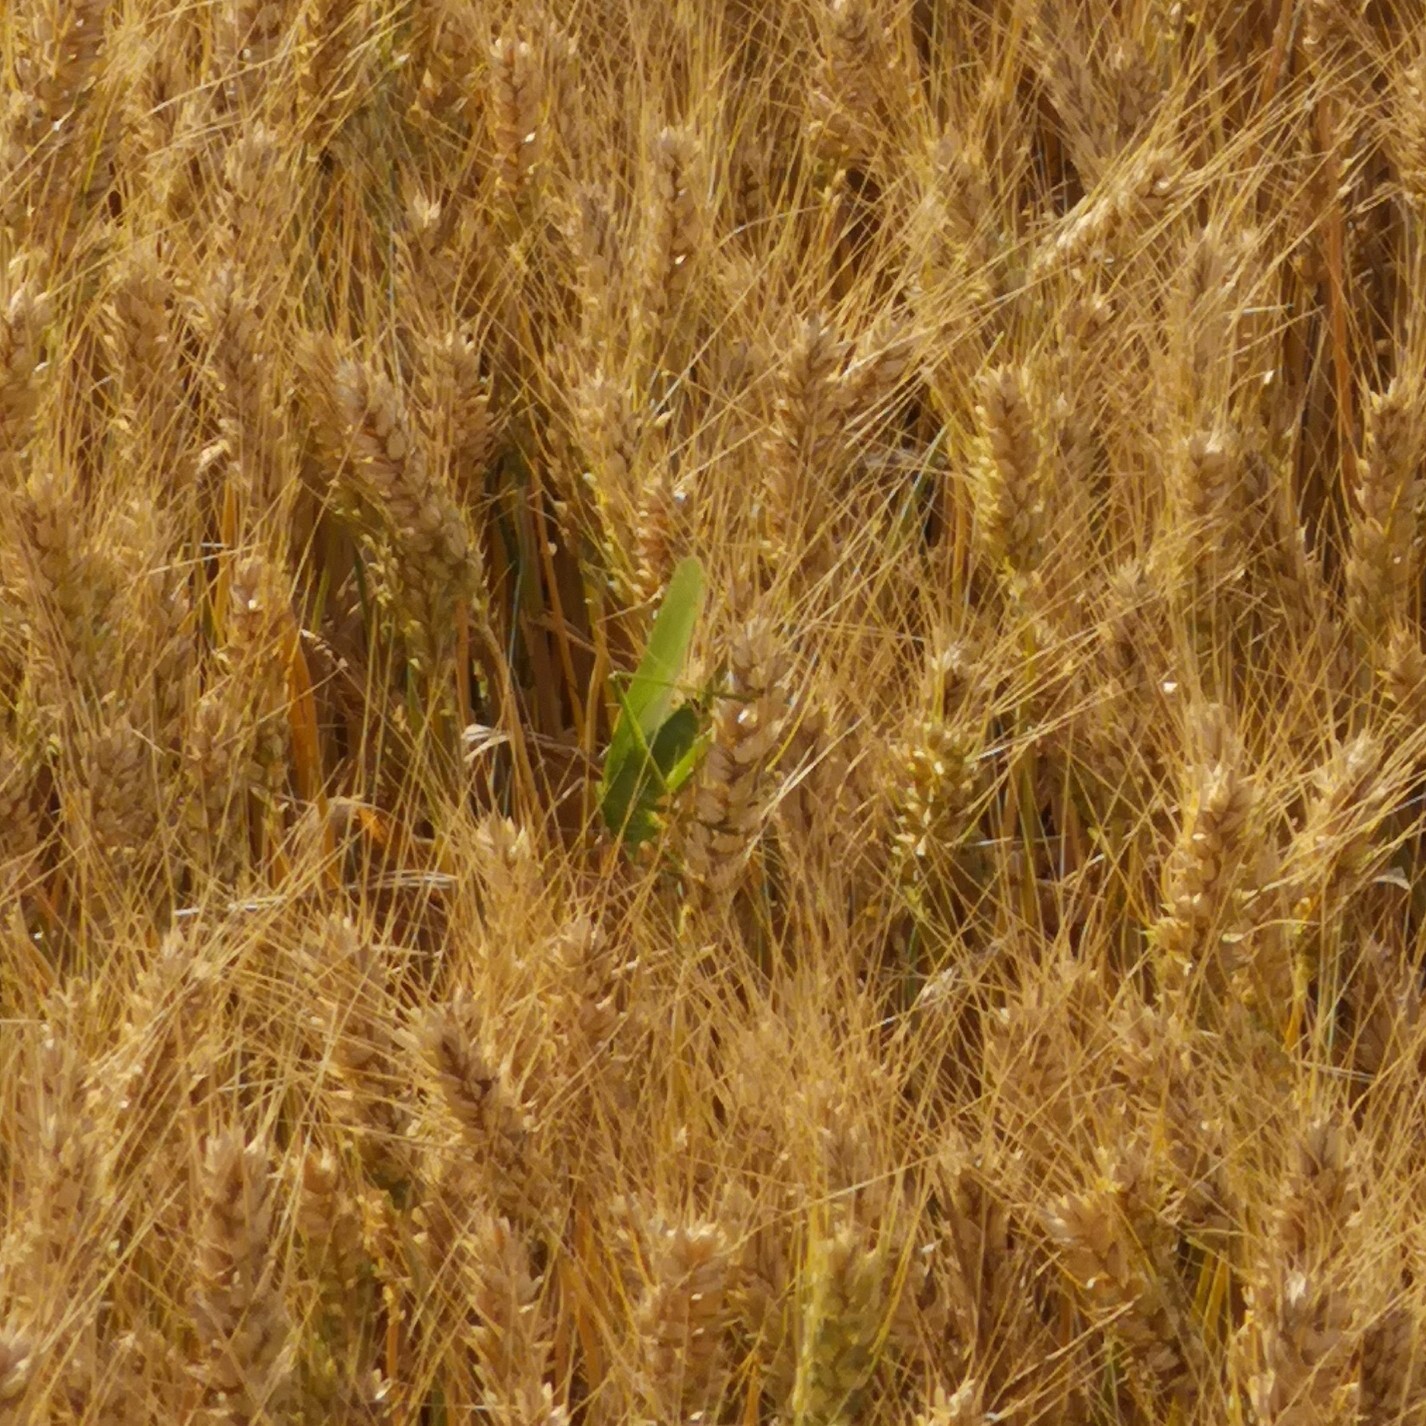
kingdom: Animalia
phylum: Arthropoda
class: Insecta
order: Orthoptera
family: Tettigoniidae
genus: Tettigonia
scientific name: Tettigonia viridissima
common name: Great green bush-cricket
